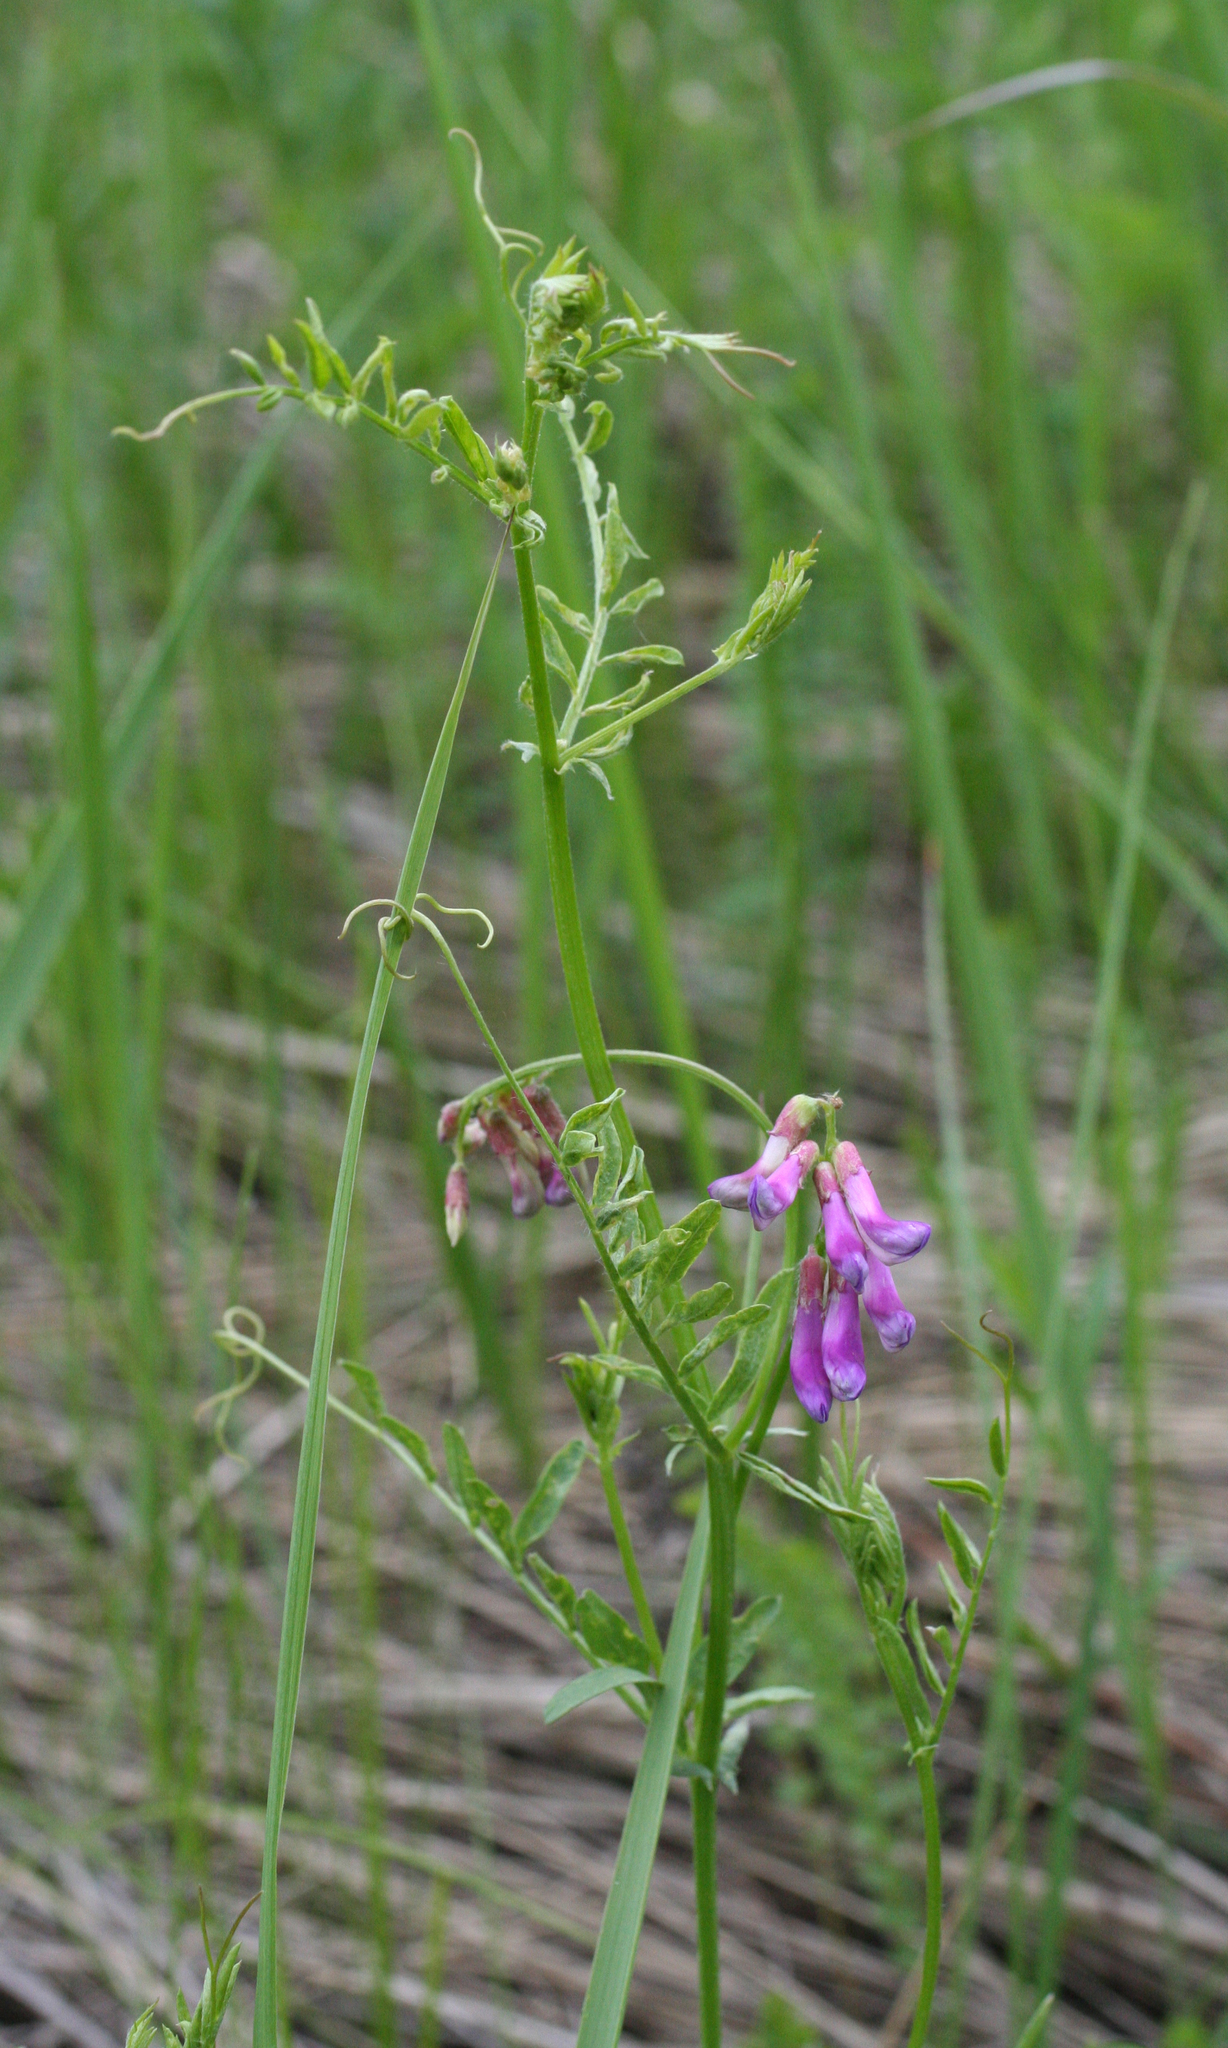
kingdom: Plantae
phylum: Tracheophyta
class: Magnoliopsida
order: Fabales
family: Fabaceae
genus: Vicia
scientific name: Vicia multicaulis
